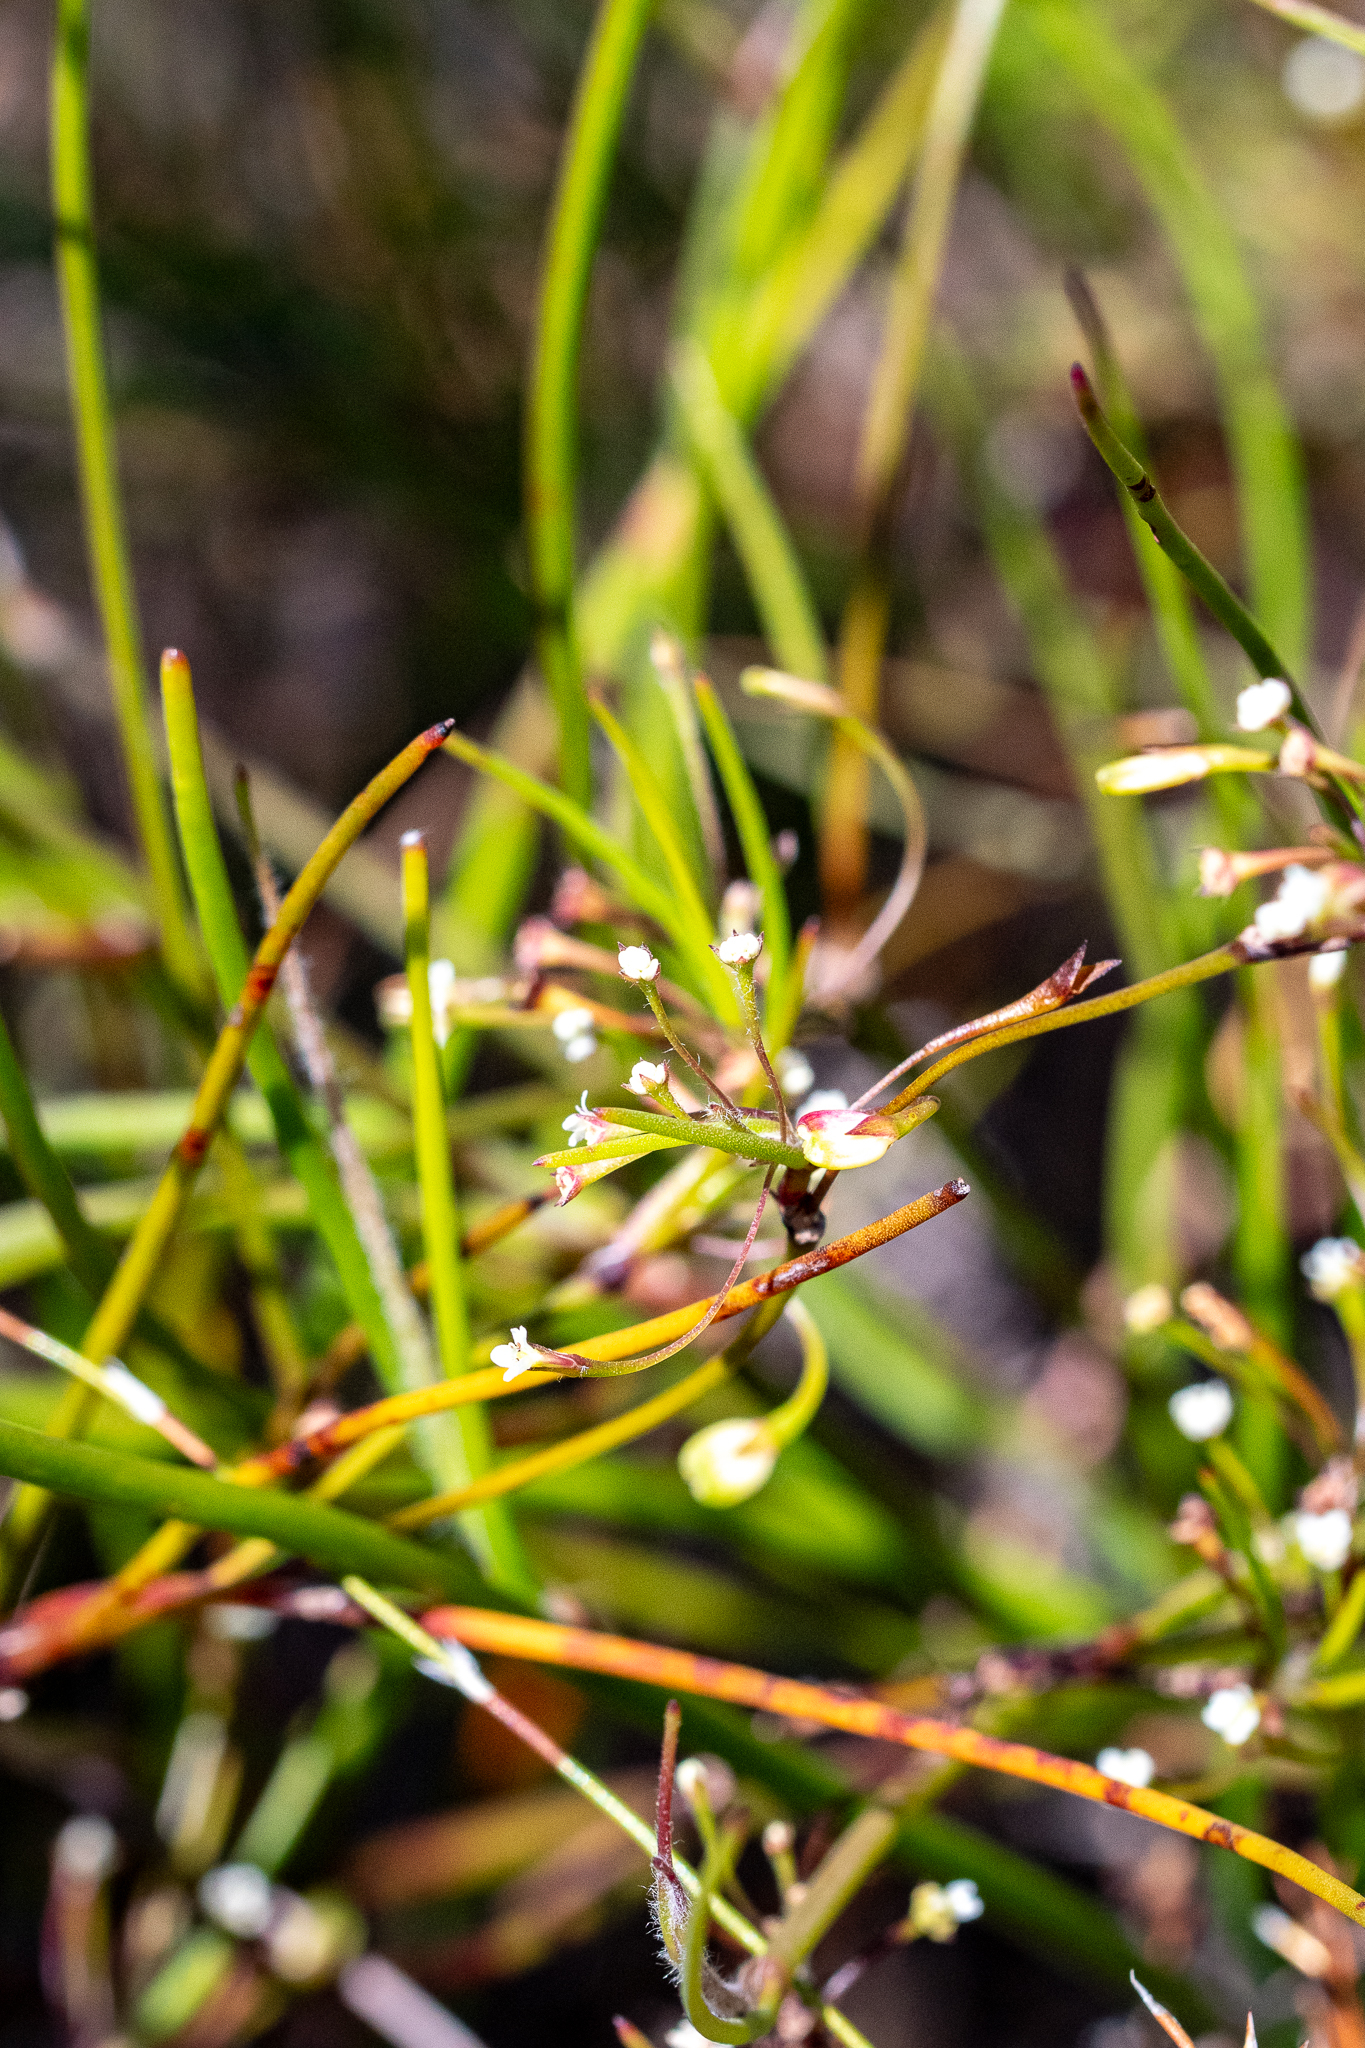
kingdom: Plantae
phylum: Tracheophyta
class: Magnoliopsida
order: Apiales
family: Apiaceae
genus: Centella
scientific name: Centella macrocarpa
